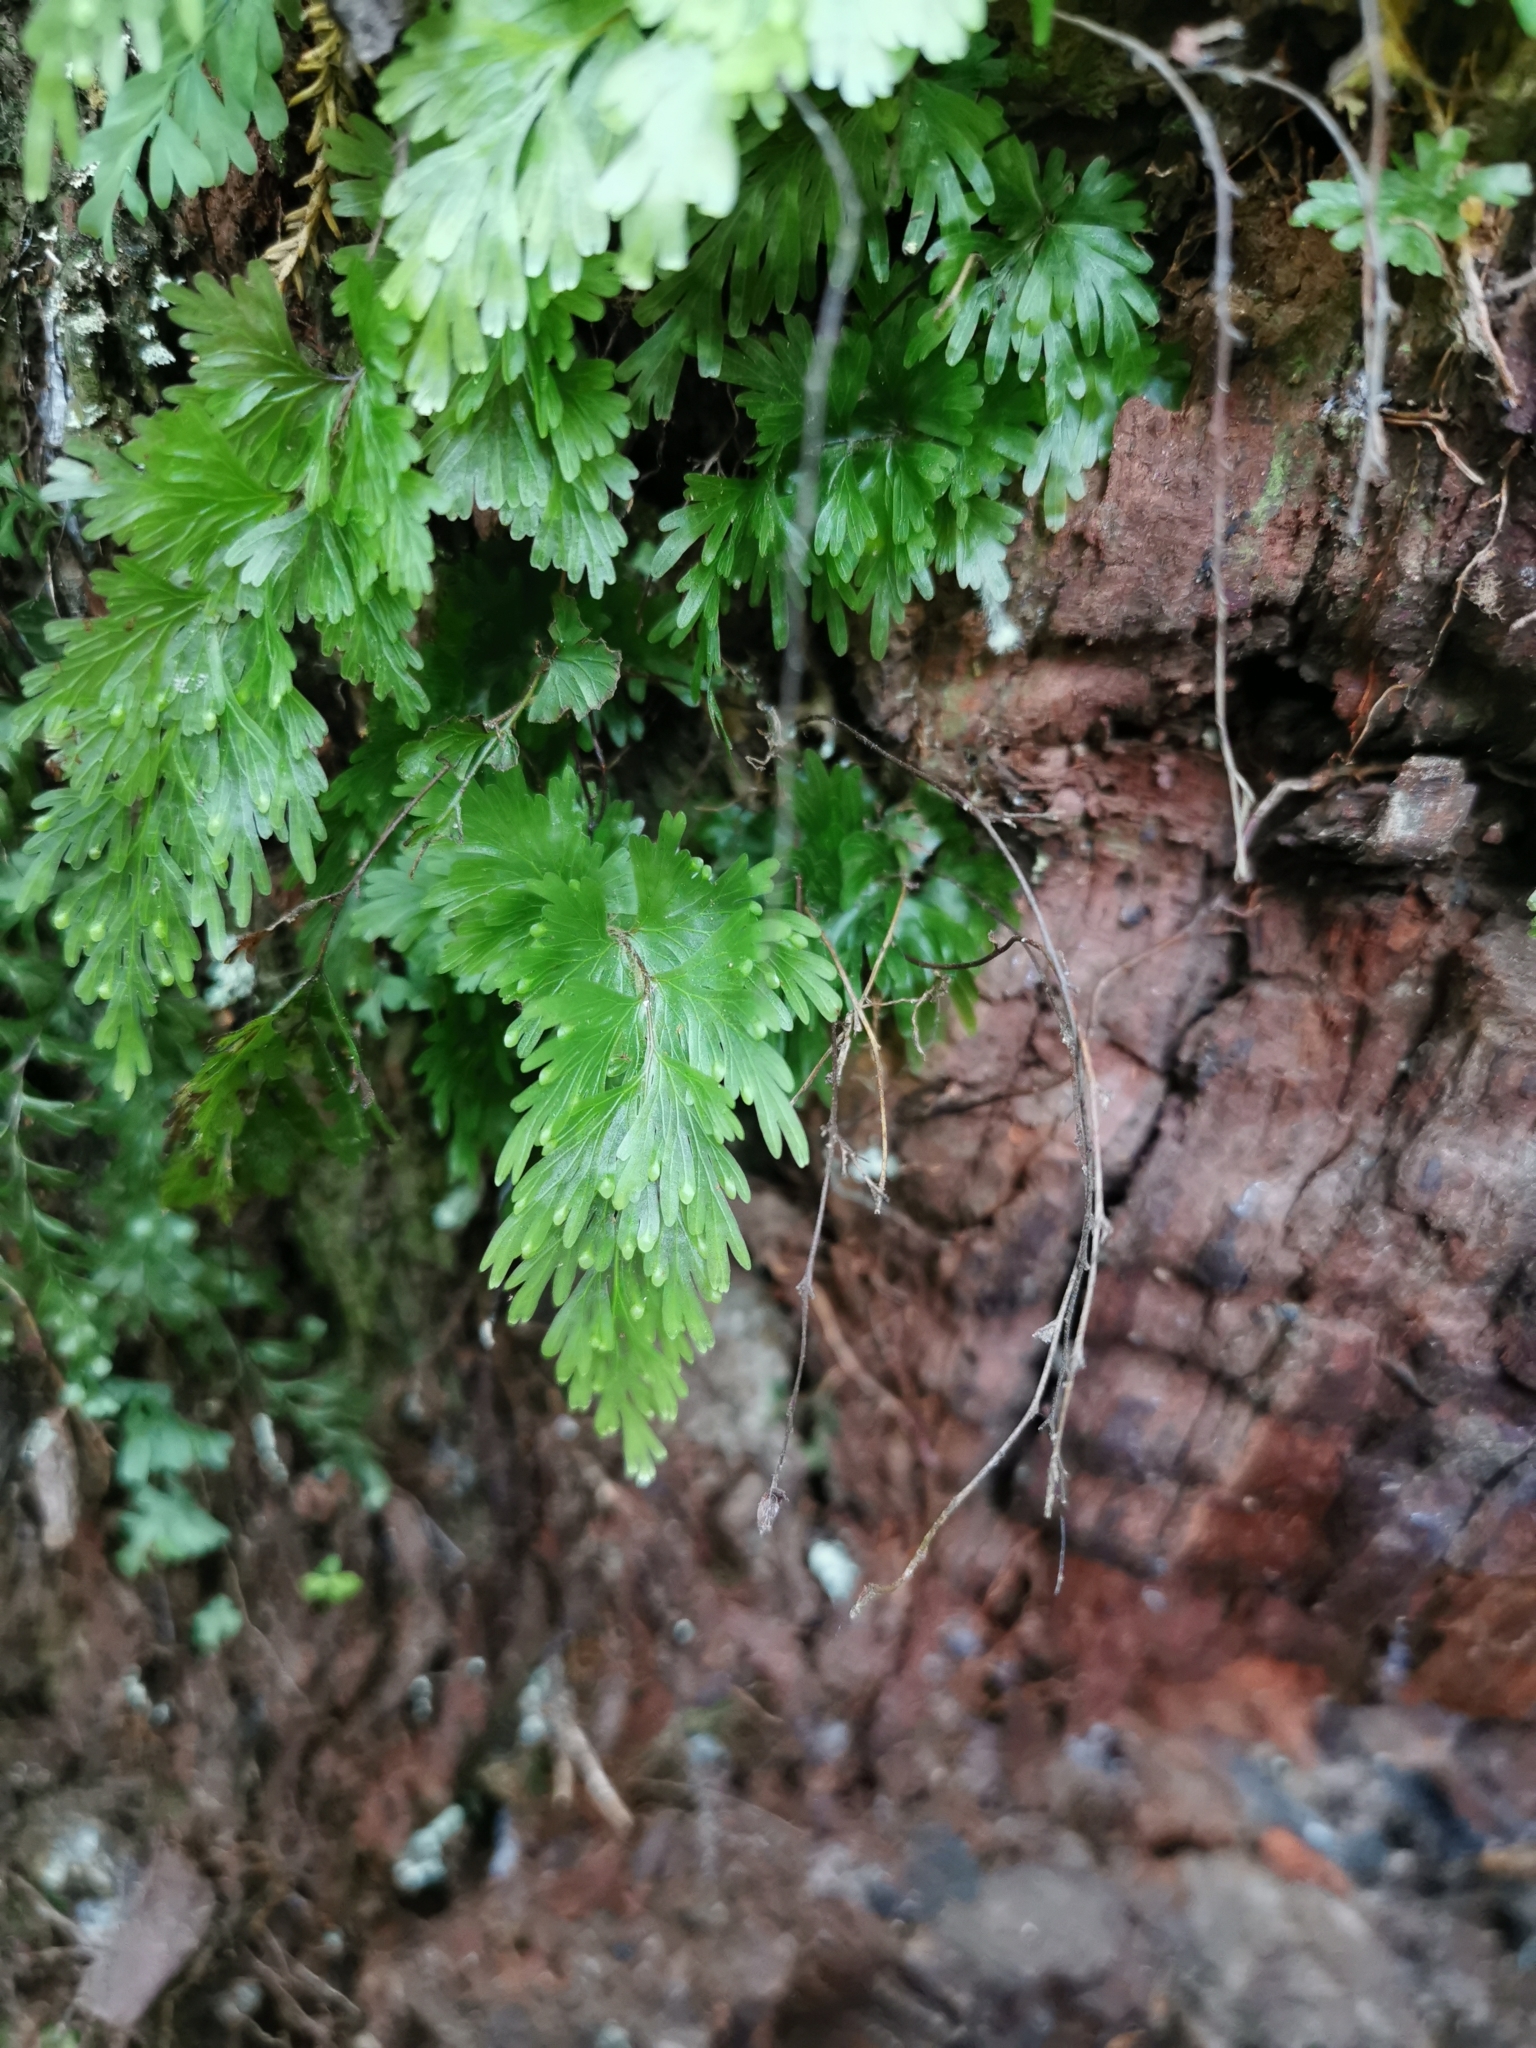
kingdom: Plantae
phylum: Tracheophyta
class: Polypodiopsida
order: Hymenophyllales
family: Hymenophyllaceae
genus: Hymenophyllum
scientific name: Hymenophyllum flabellatum
